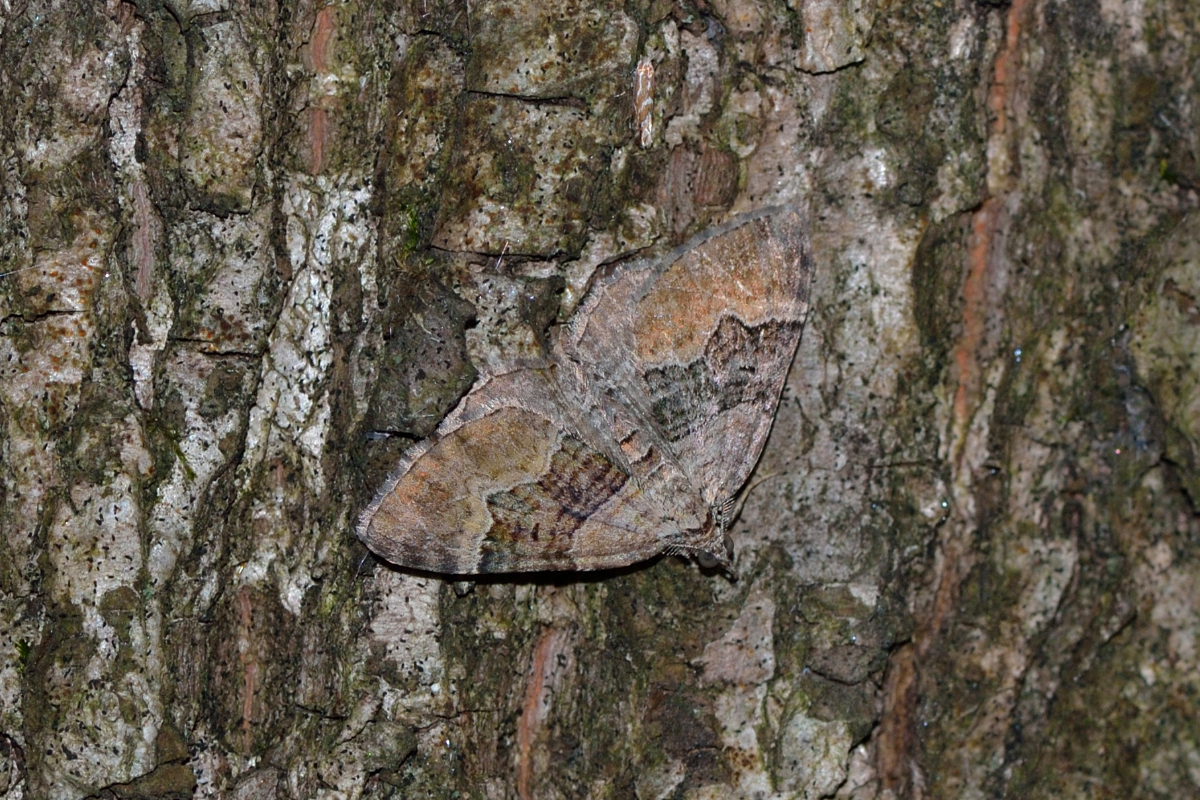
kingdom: Animalia
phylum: Arthropoda
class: Insecta
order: Lepidoptera
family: Geometridae
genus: Xanthorhoe
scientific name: Xanthorhoe quadrifasiata
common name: Large twin-spot carpet
